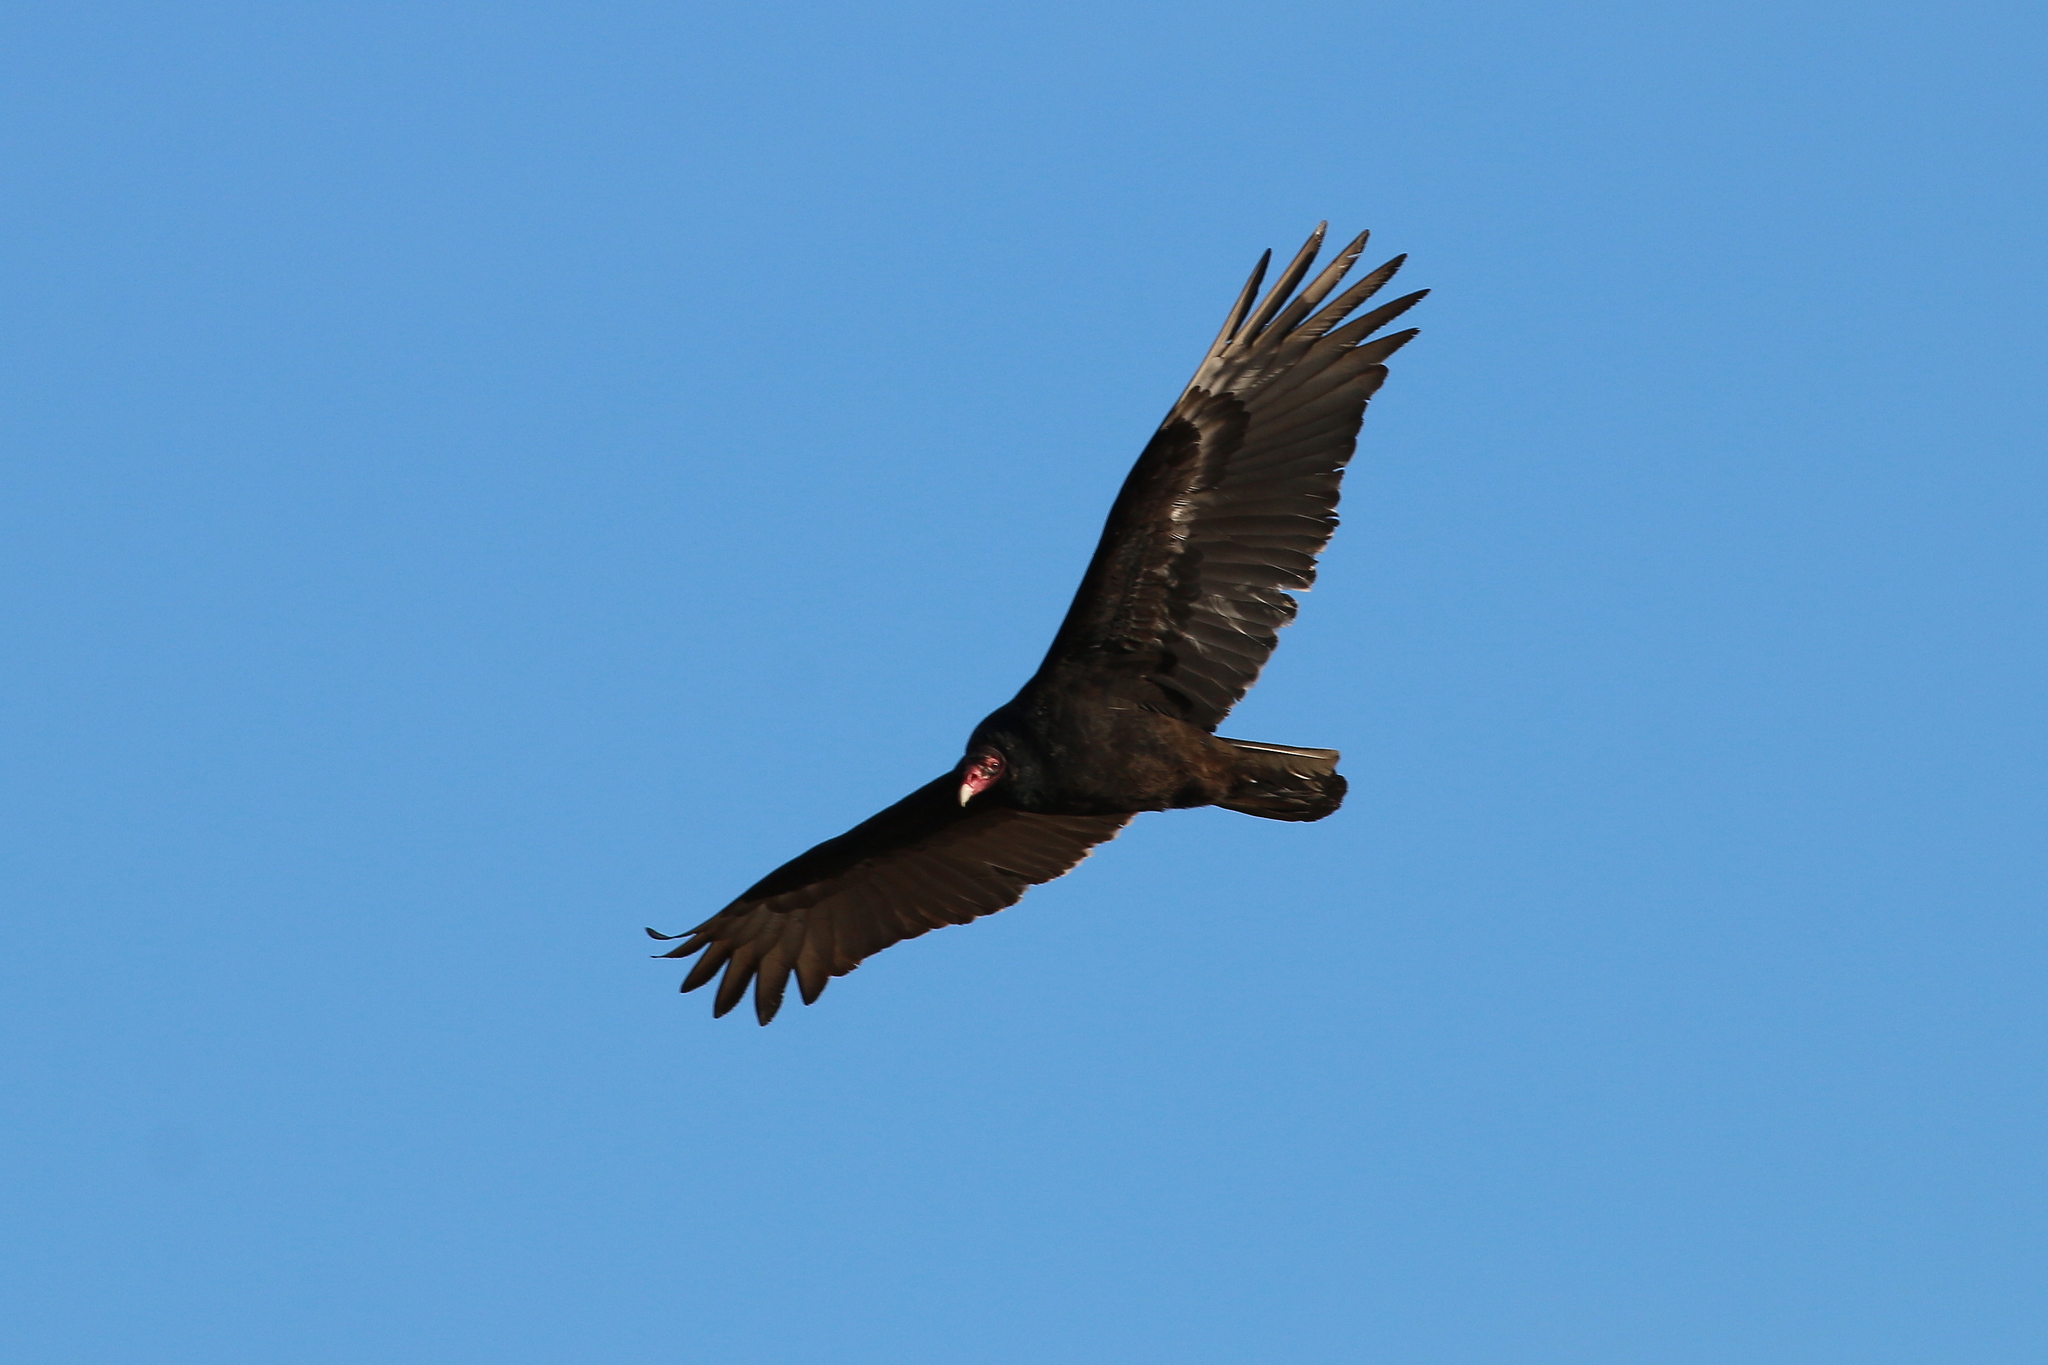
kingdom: Animalia
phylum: Chordata
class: Aves
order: Accipitriformes
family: Cathartidae
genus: Cathartes
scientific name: Cathartes aura
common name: Turkey vulture
